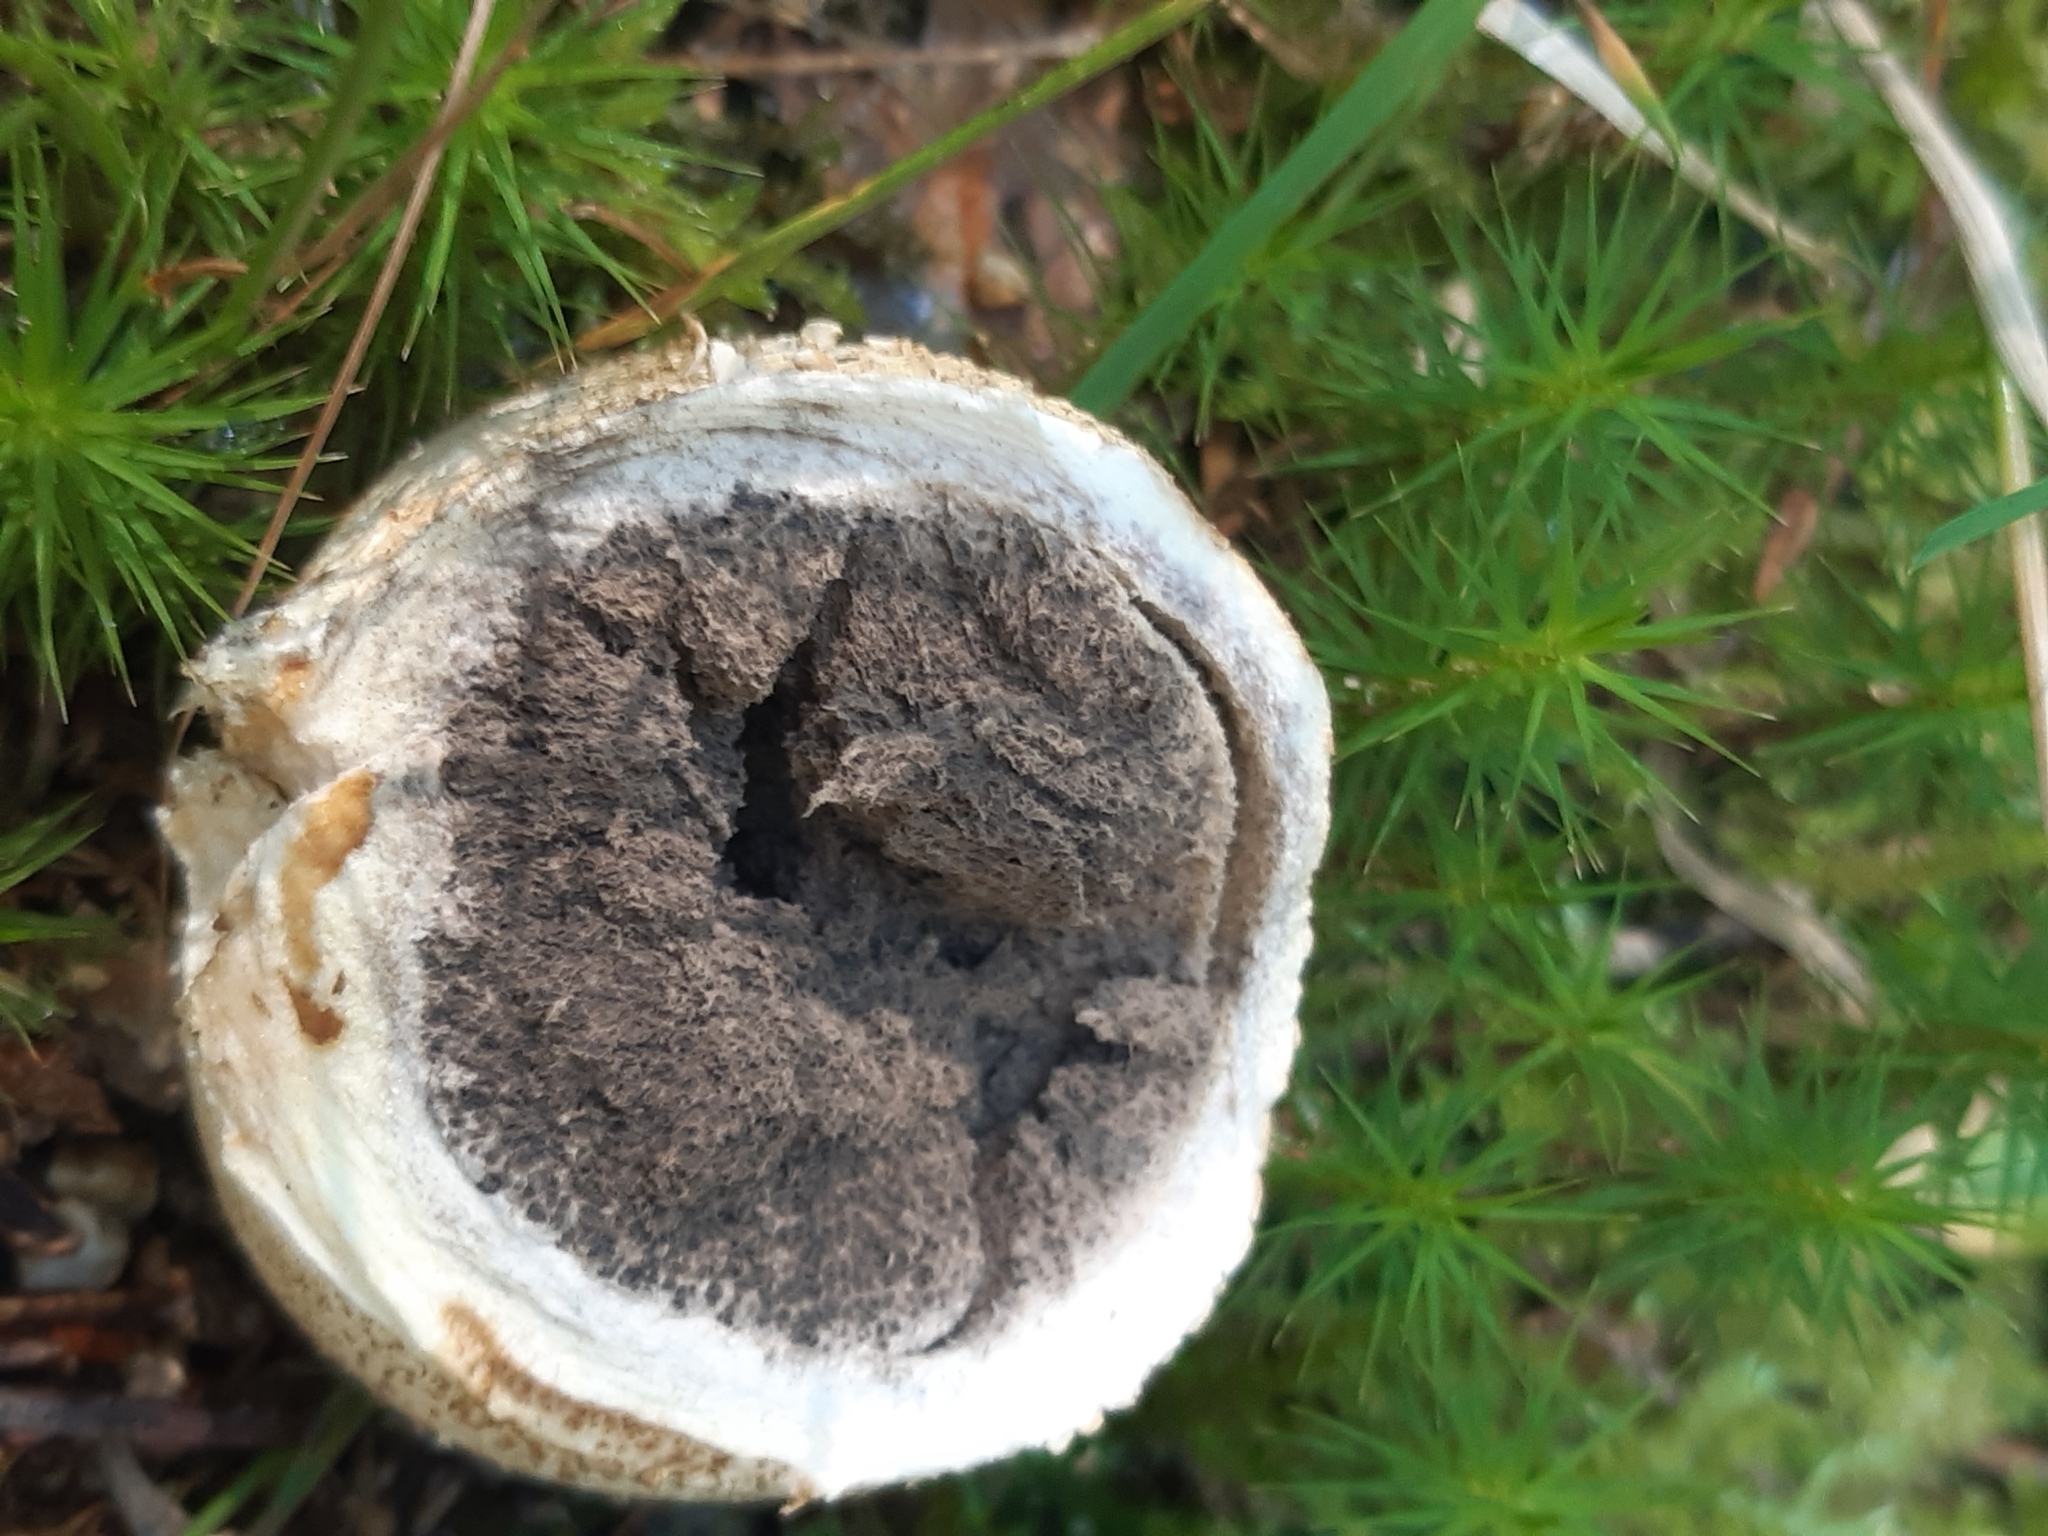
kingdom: Fungi
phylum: Basidiomycota
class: Agaricomycetes
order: Boletales
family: Sclerodermataceae
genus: Scleroderma
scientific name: Scleroderma citrinum
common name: Common earthball
